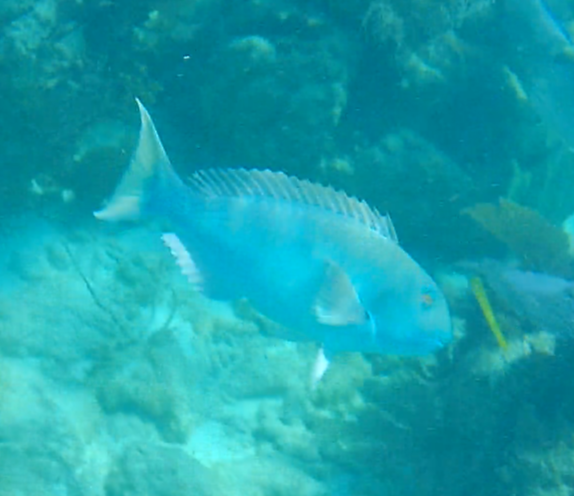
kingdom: Animalia
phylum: Chordata
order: Perciformes
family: Scaridae
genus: Sparisoma
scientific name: Sparisoma rubripinne
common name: Redfin parrotfish
